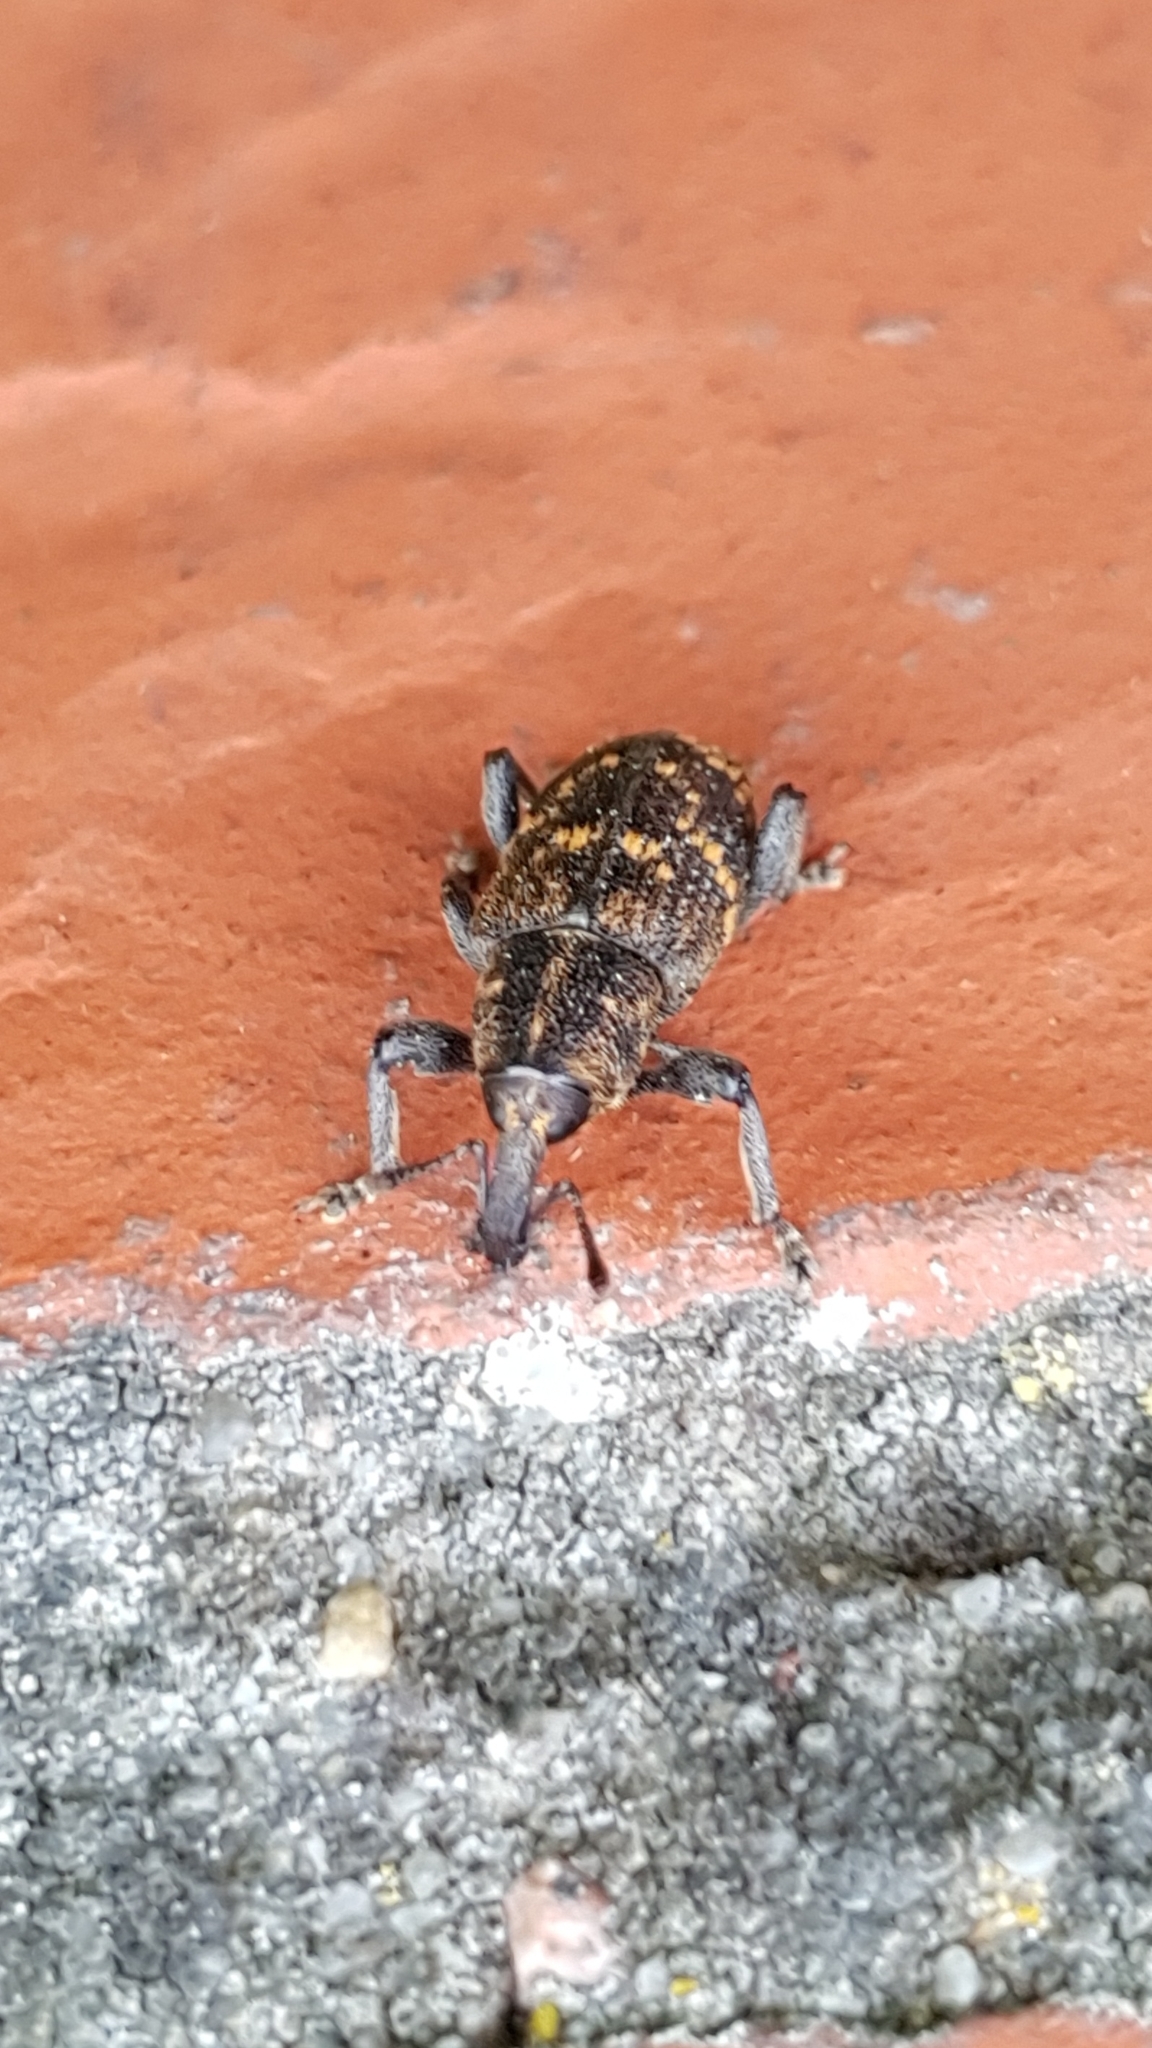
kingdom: Animalia
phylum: Arthropoda
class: Insecta
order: Coleoptera
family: Curculionidae
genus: Hylobius
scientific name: Hylobius abietis
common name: Large pine weevil
